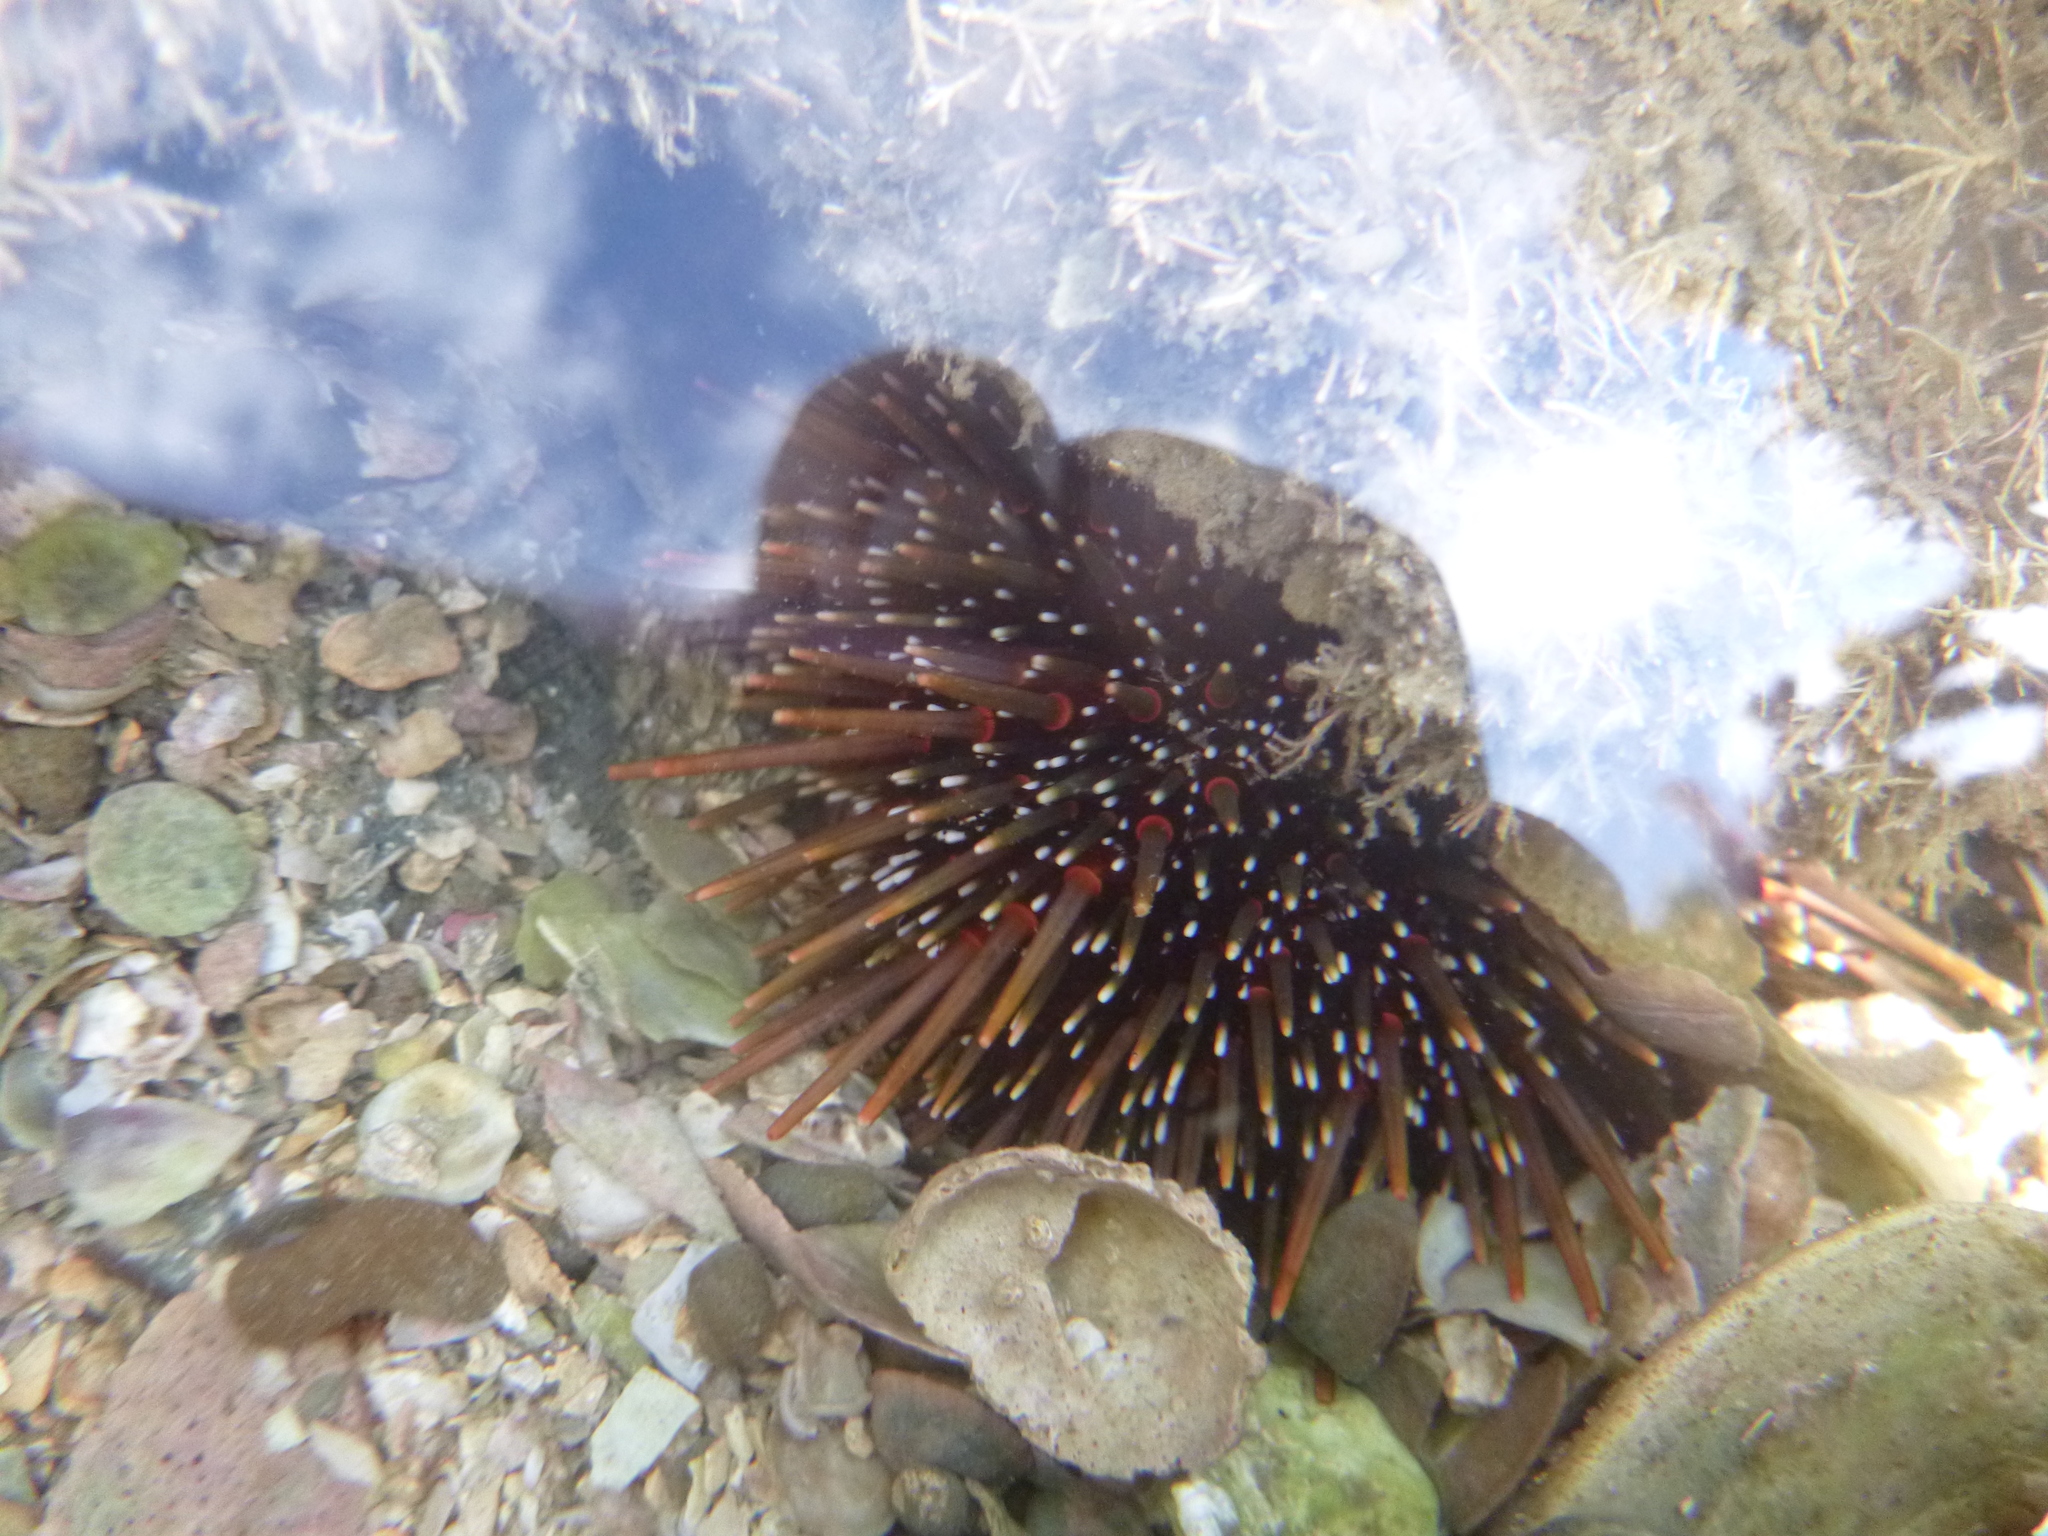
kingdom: Animalia
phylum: Echinodermata
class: Echinoidea
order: Camarodonta
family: Echinometridae
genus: Evechinus
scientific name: Evechinus chloroticus
